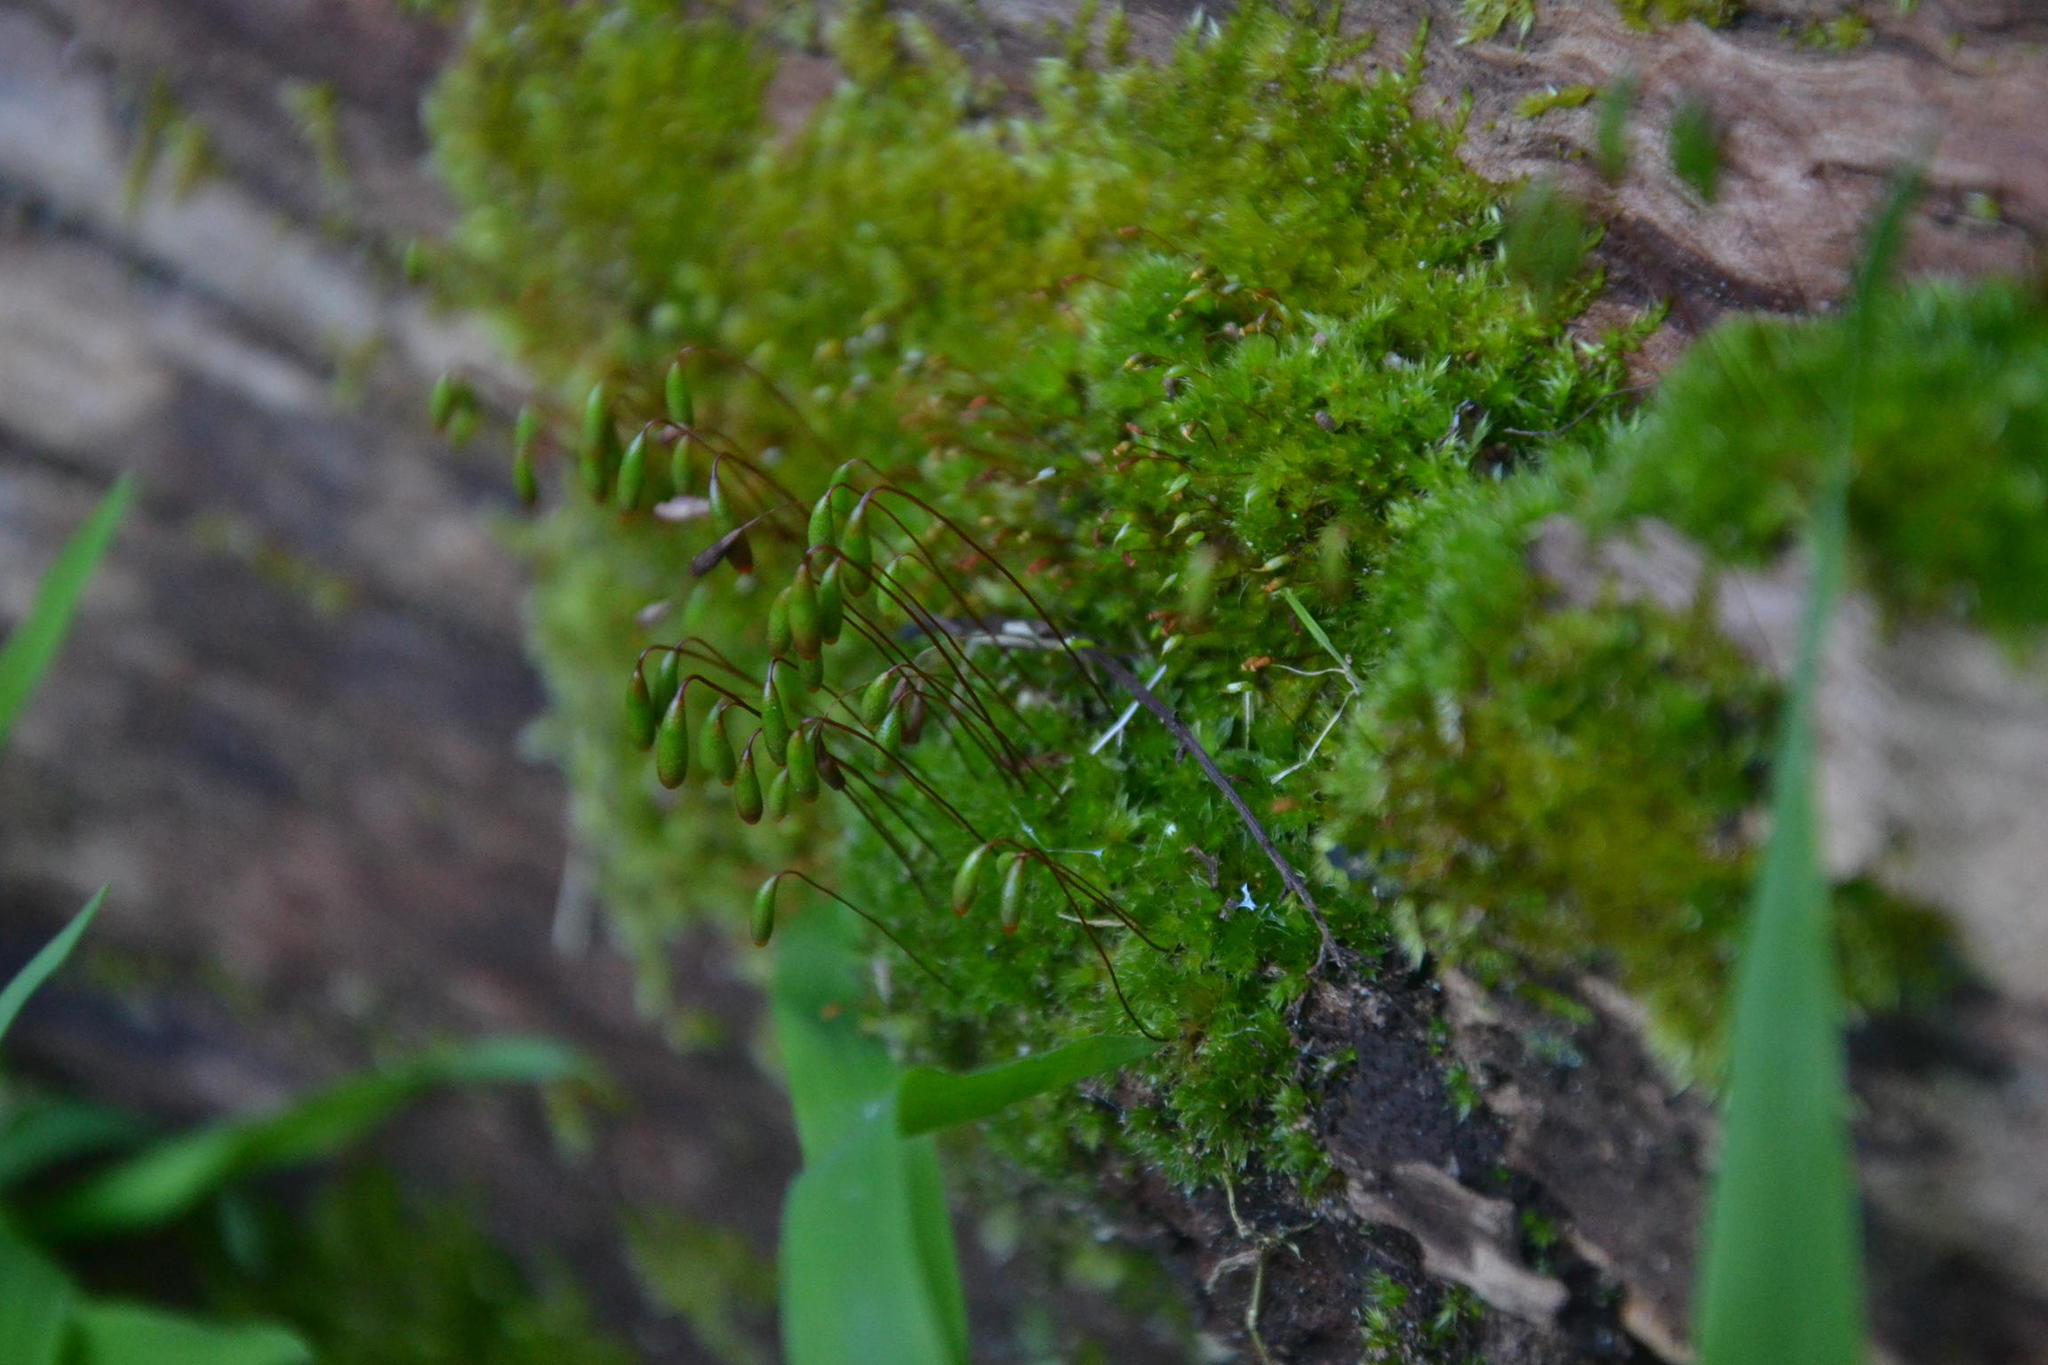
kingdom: Plantae
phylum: Bryophyta
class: Bryopsida
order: Bryales
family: Bryaceae
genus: Rosulabryum
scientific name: Rosulabryum capillare
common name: Capillary thread-moss
